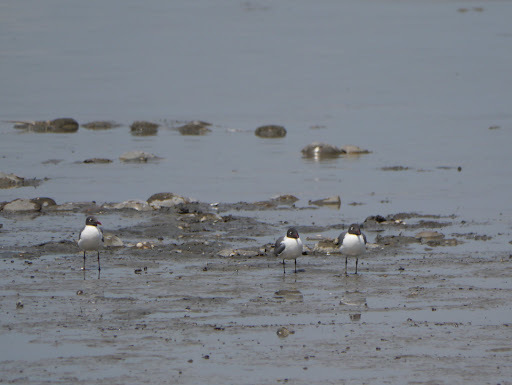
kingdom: Animalia
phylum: Chordata
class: Aves
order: Charadriiformes
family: Laridae
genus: Leucophaeus
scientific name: Leucophaeus atricilla
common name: Laughing gull
